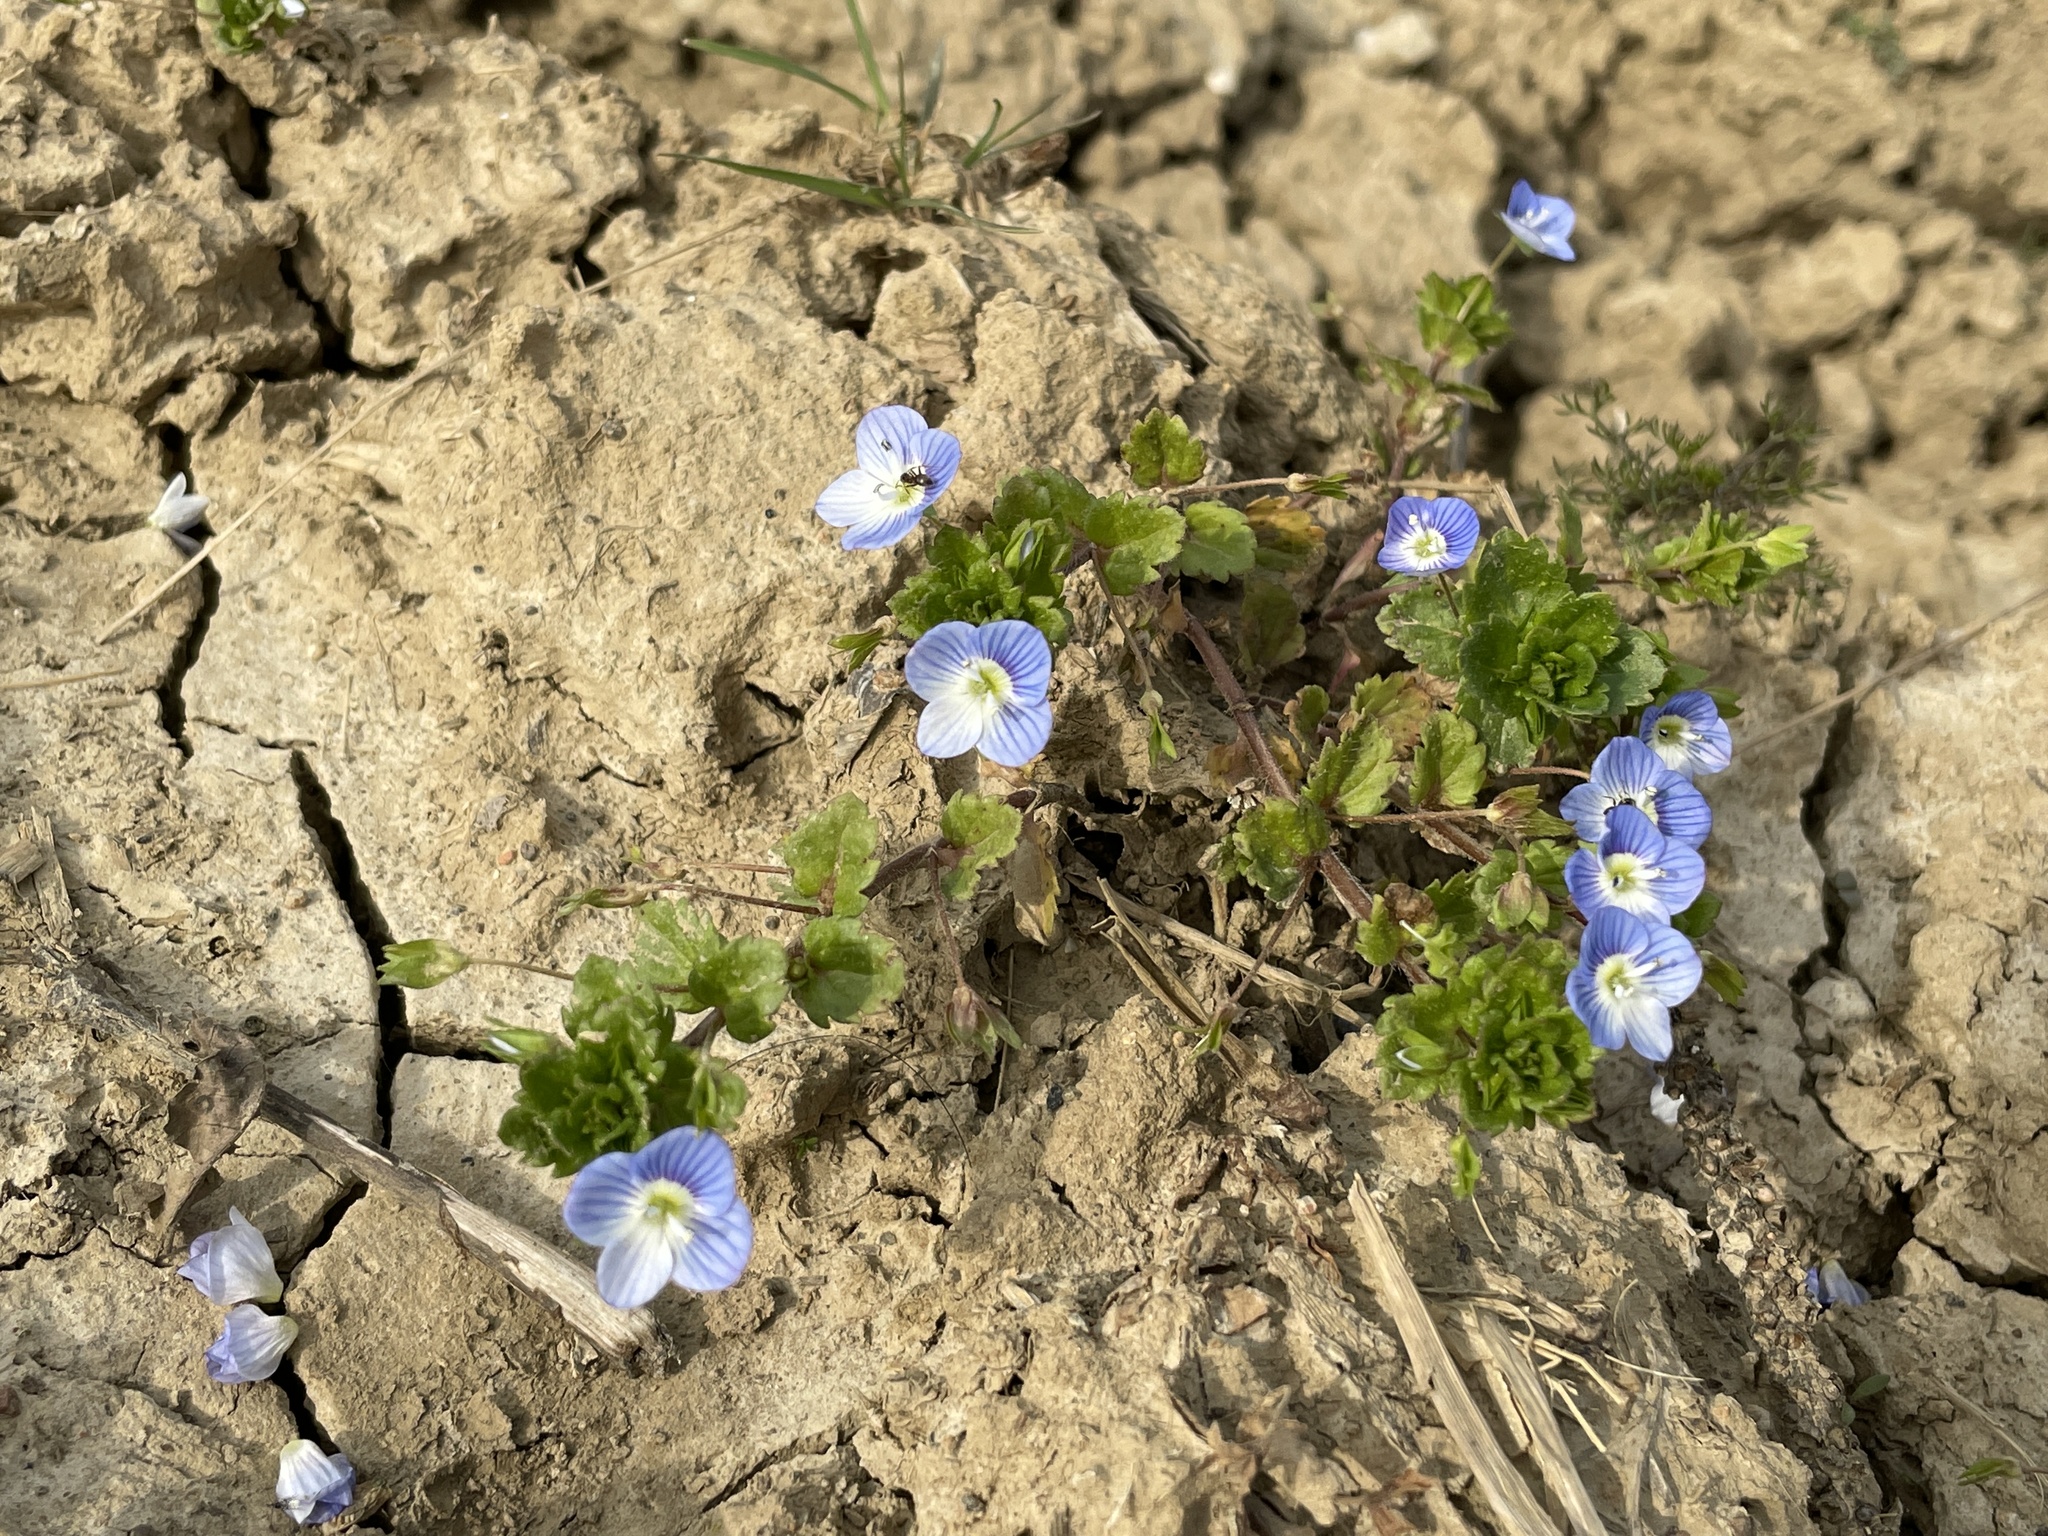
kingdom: Plantae
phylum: Tracheophyta
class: Magnoliopsida
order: Lamiales
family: Plantaginaceae
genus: Veronica
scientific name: Veronica persica
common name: Common field-speedwell
